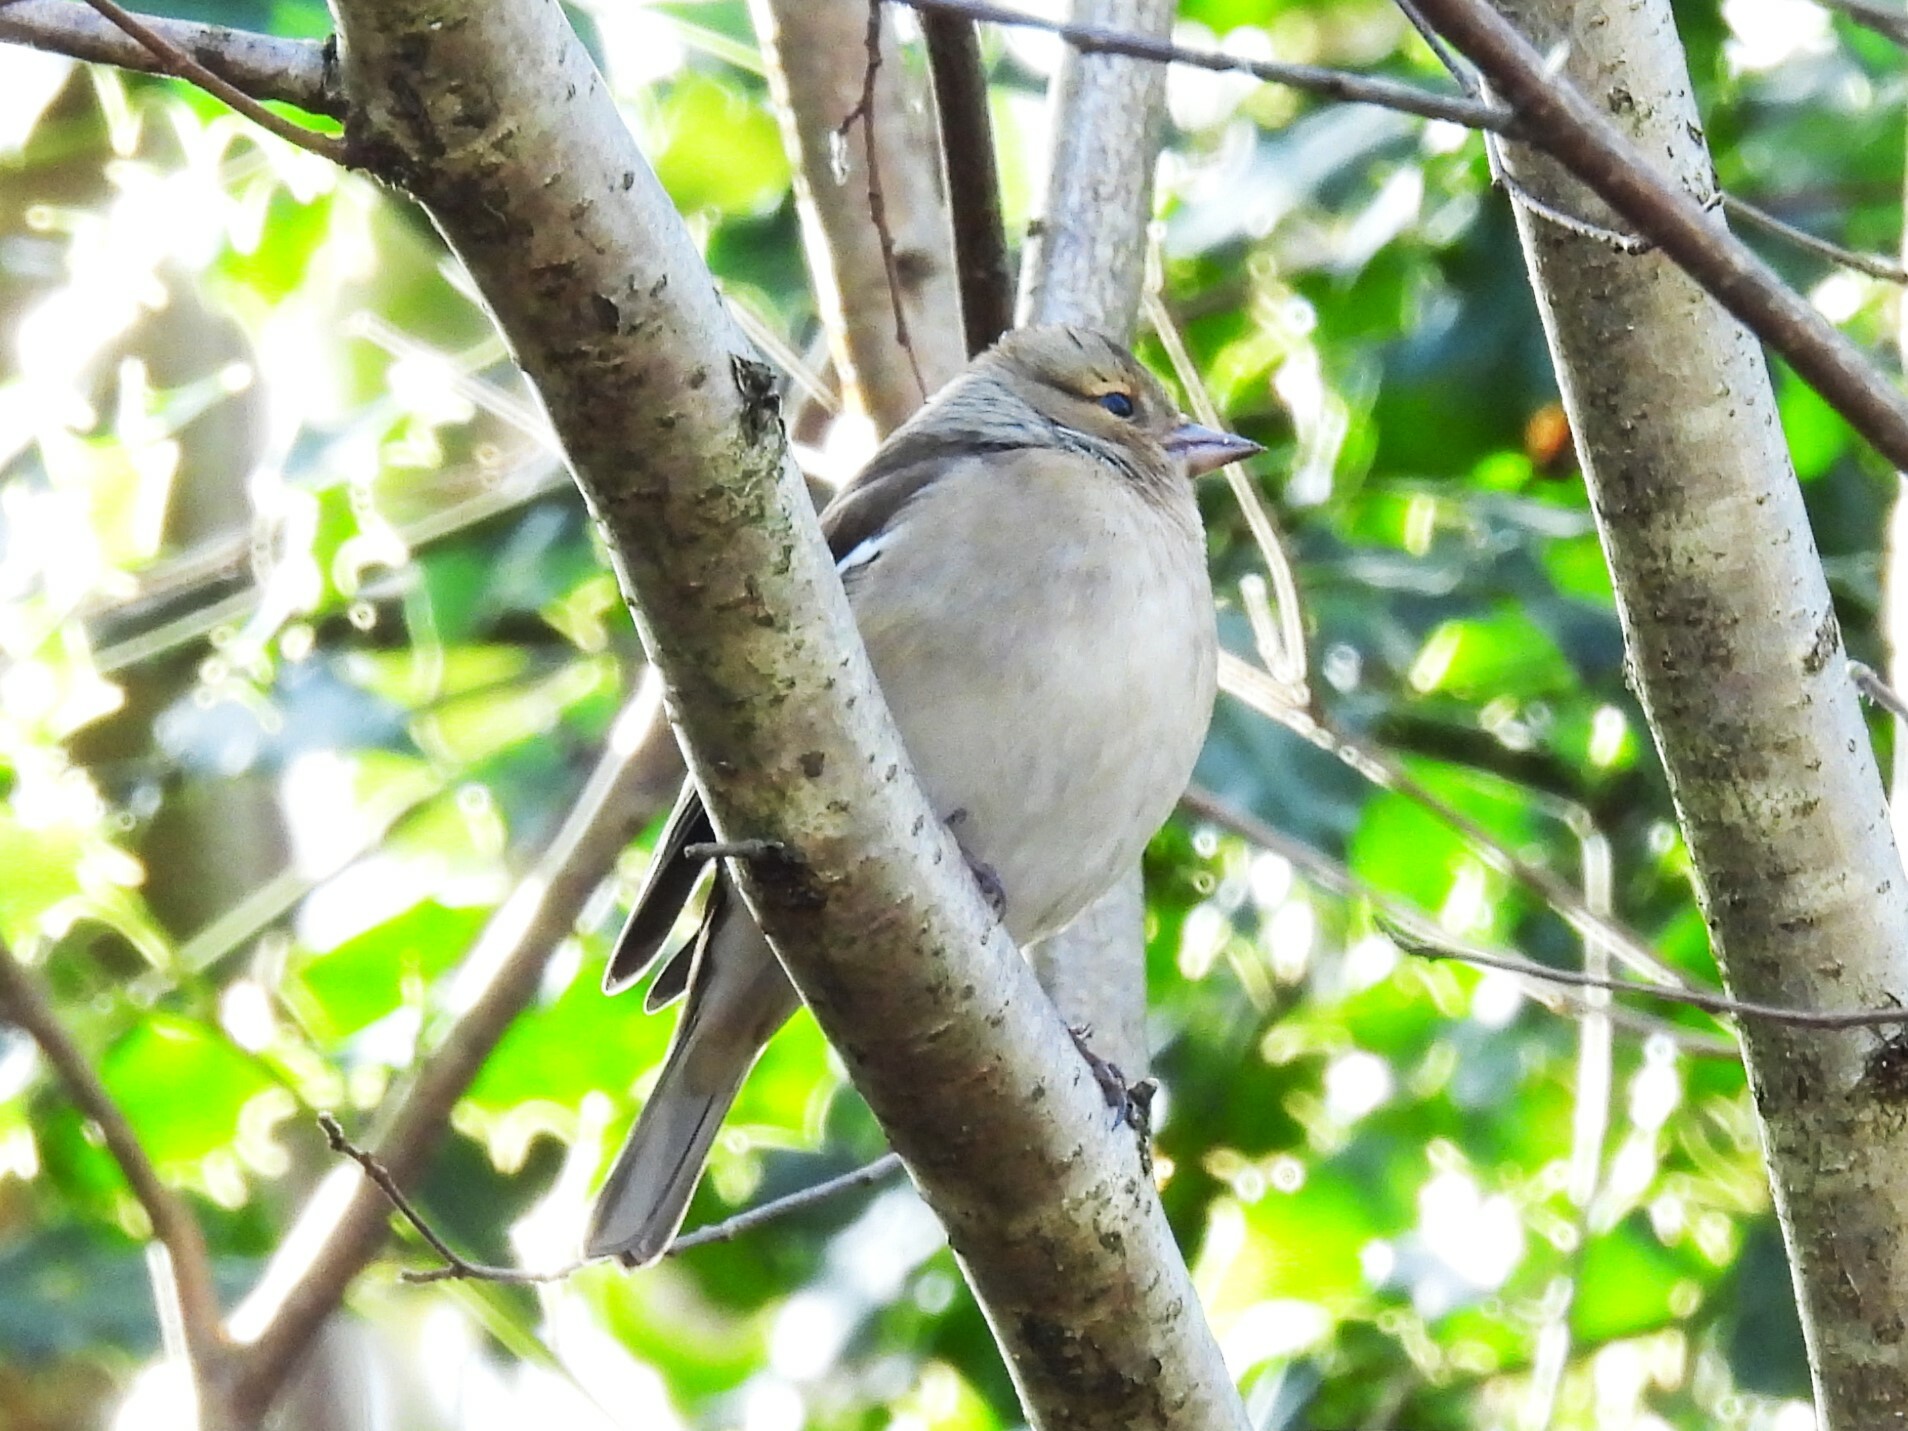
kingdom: Animalia
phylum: Chordata
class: Aves
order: Passeriformes
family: Fringillidae
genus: Fringilla
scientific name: Fringilla coelebs
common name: Common chaffinch
